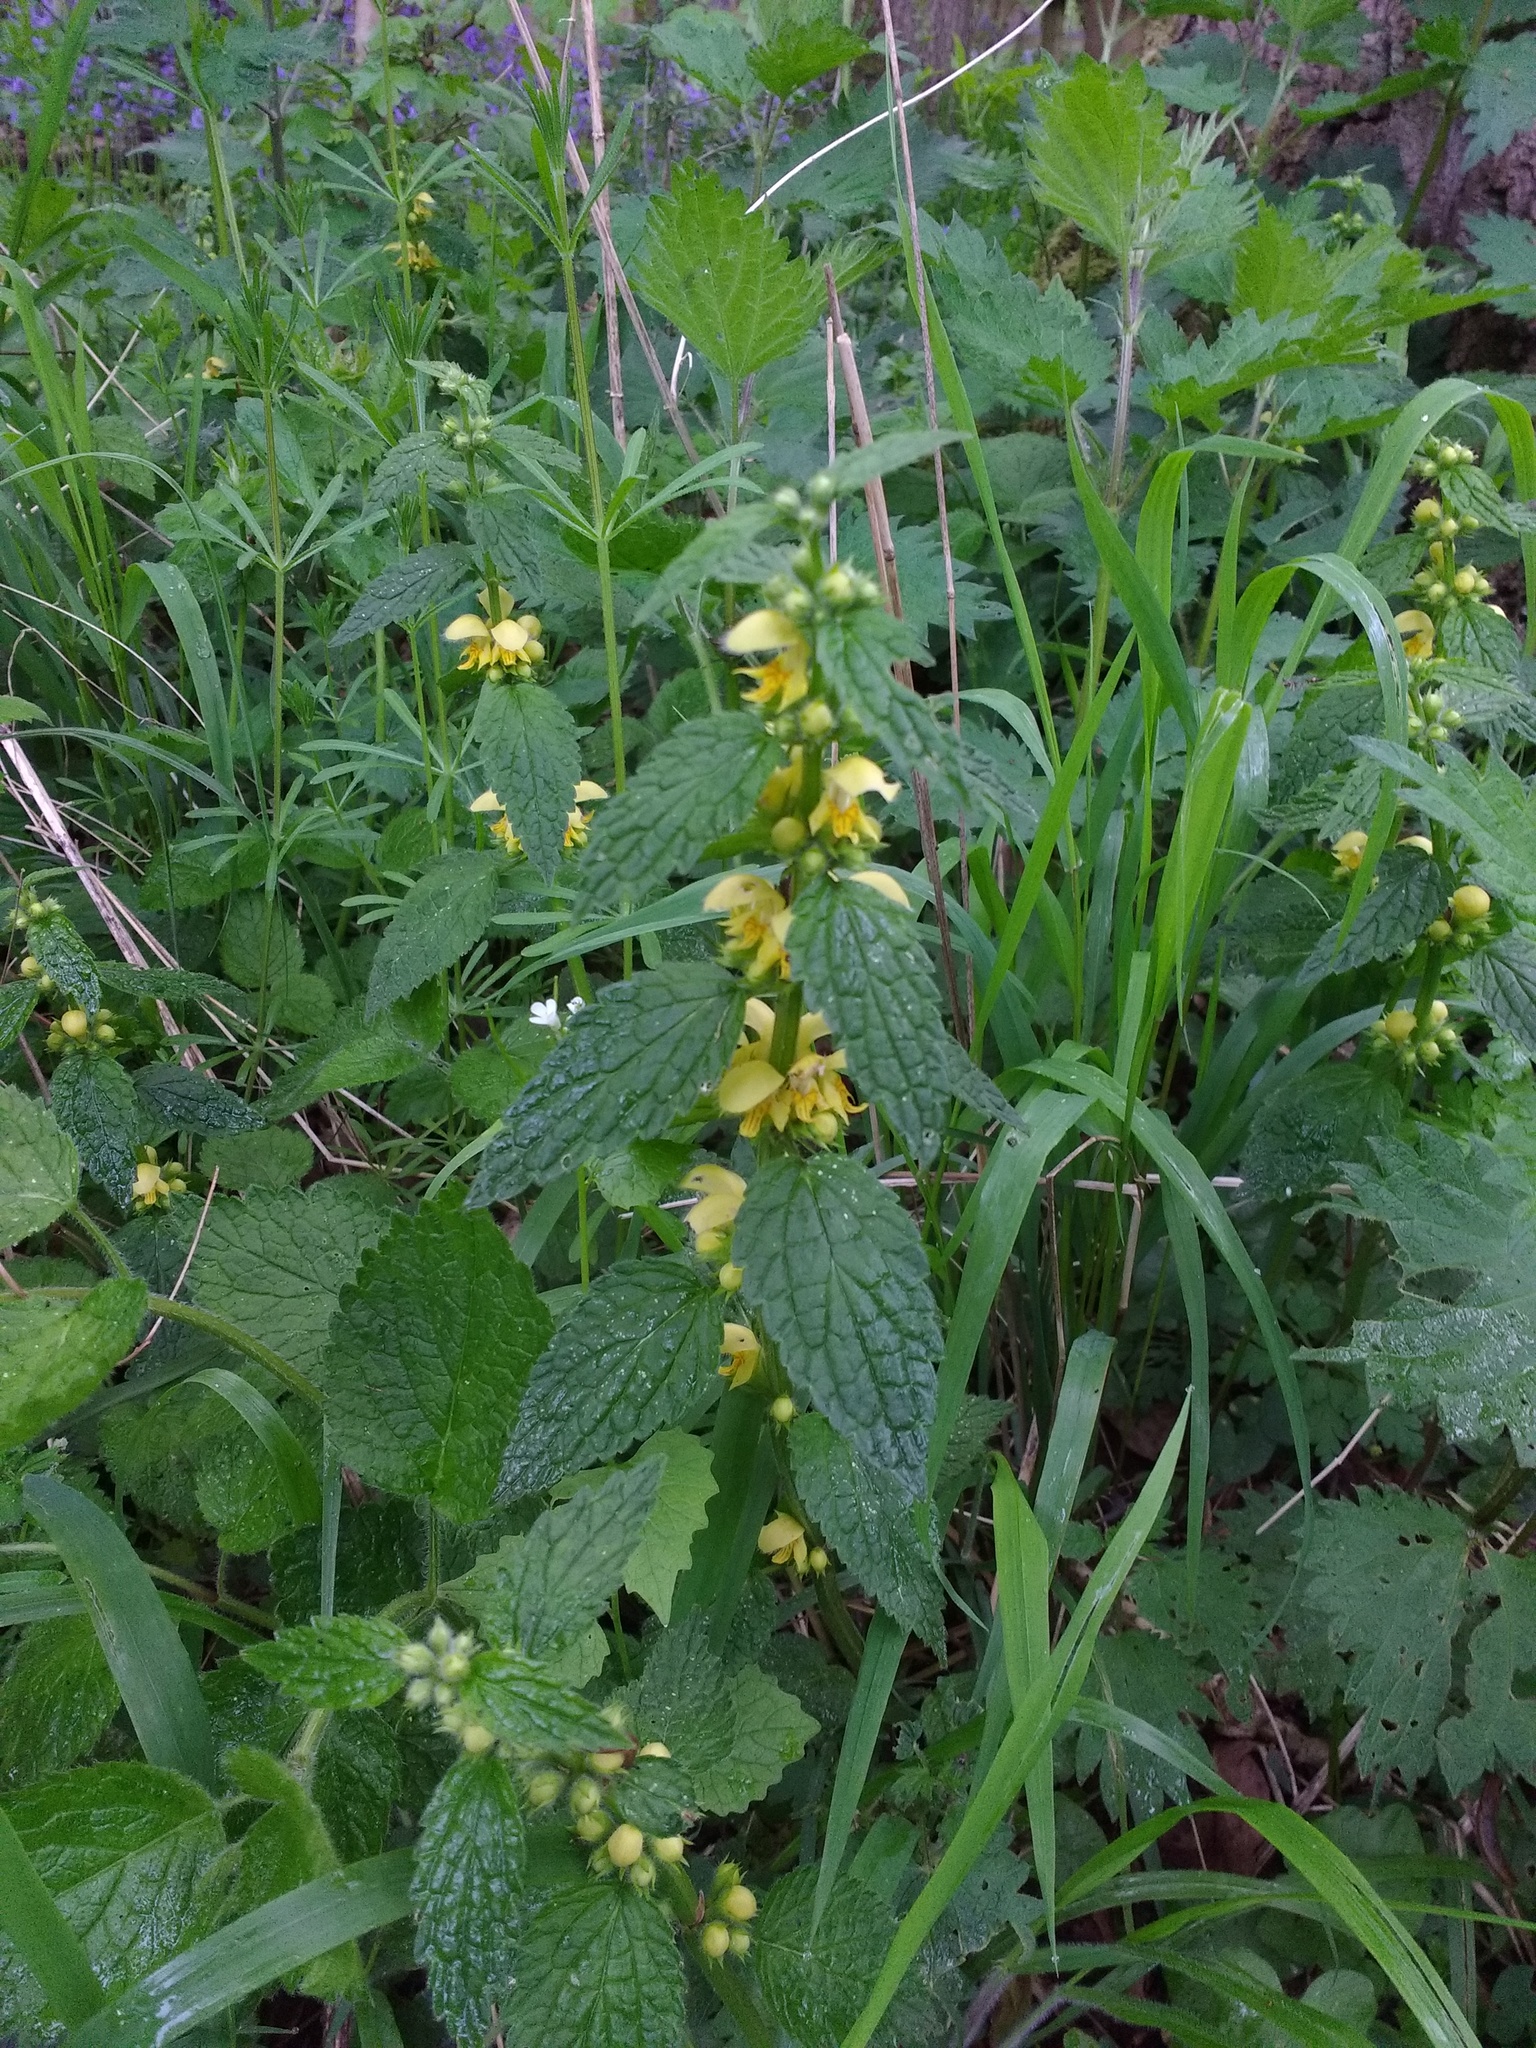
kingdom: Plantae
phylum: Tracheophyta
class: Magnoliopsida
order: Lamiales
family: Lamiaceae
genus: Lamium
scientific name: Lamium galeobdolon
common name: Yellow archangel
